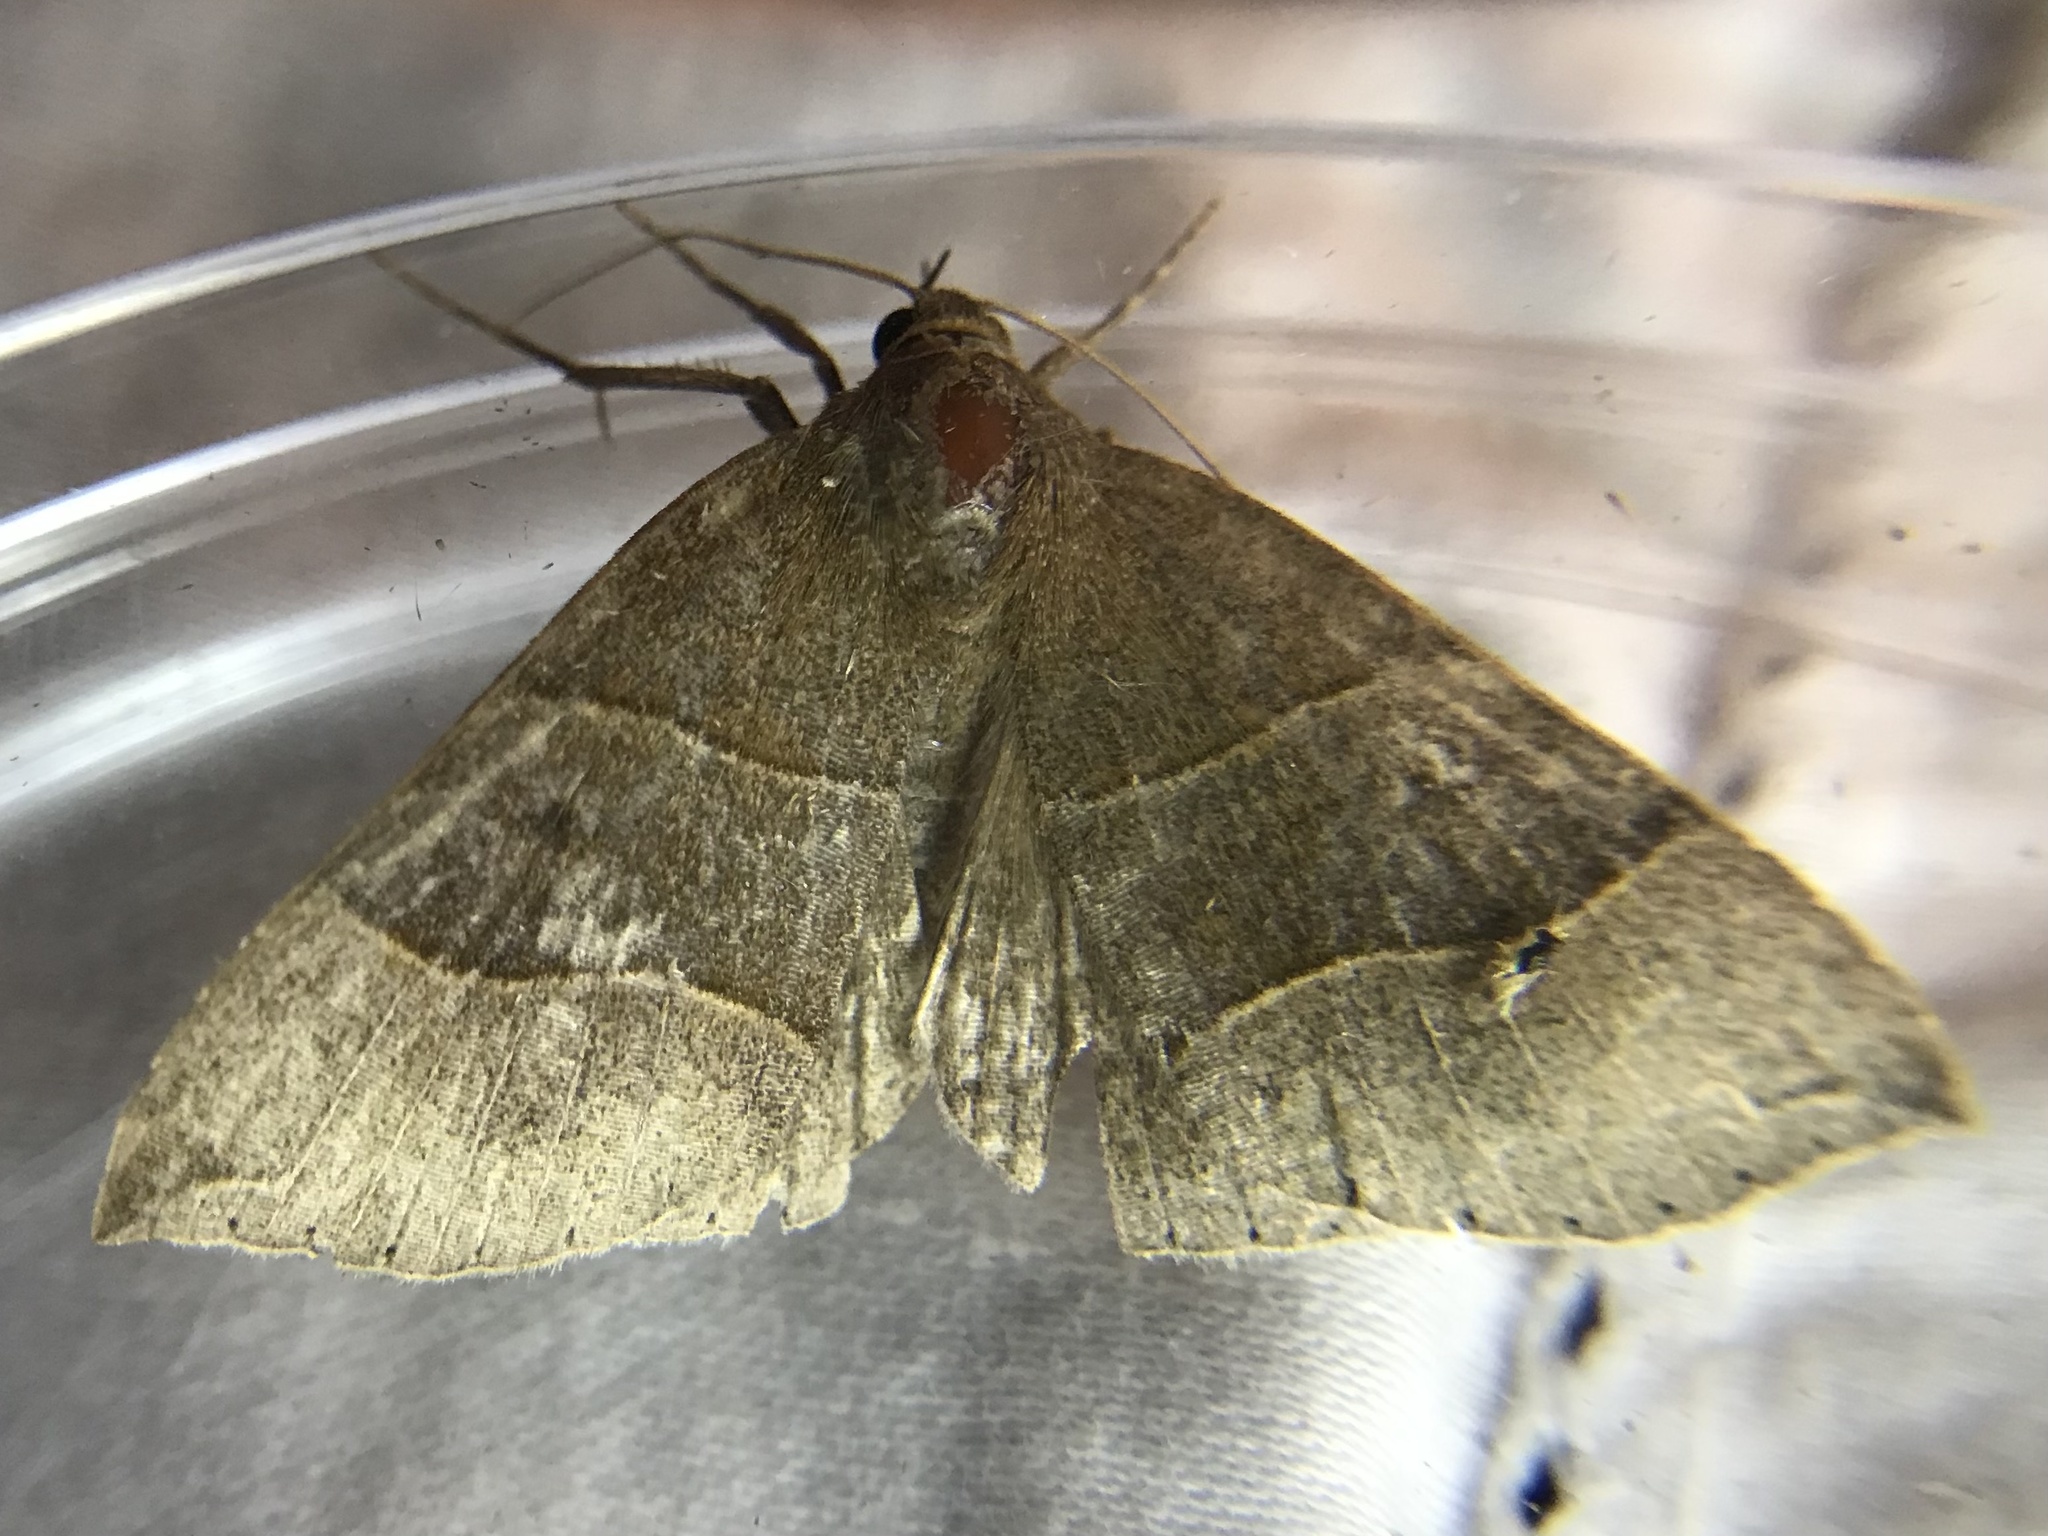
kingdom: Animalia
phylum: Arthropoda
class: Insecta
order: Lepidoptera
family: Erebidae
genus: Parallelia
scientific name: Parallelia bistriaris
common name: Maple looper moth
